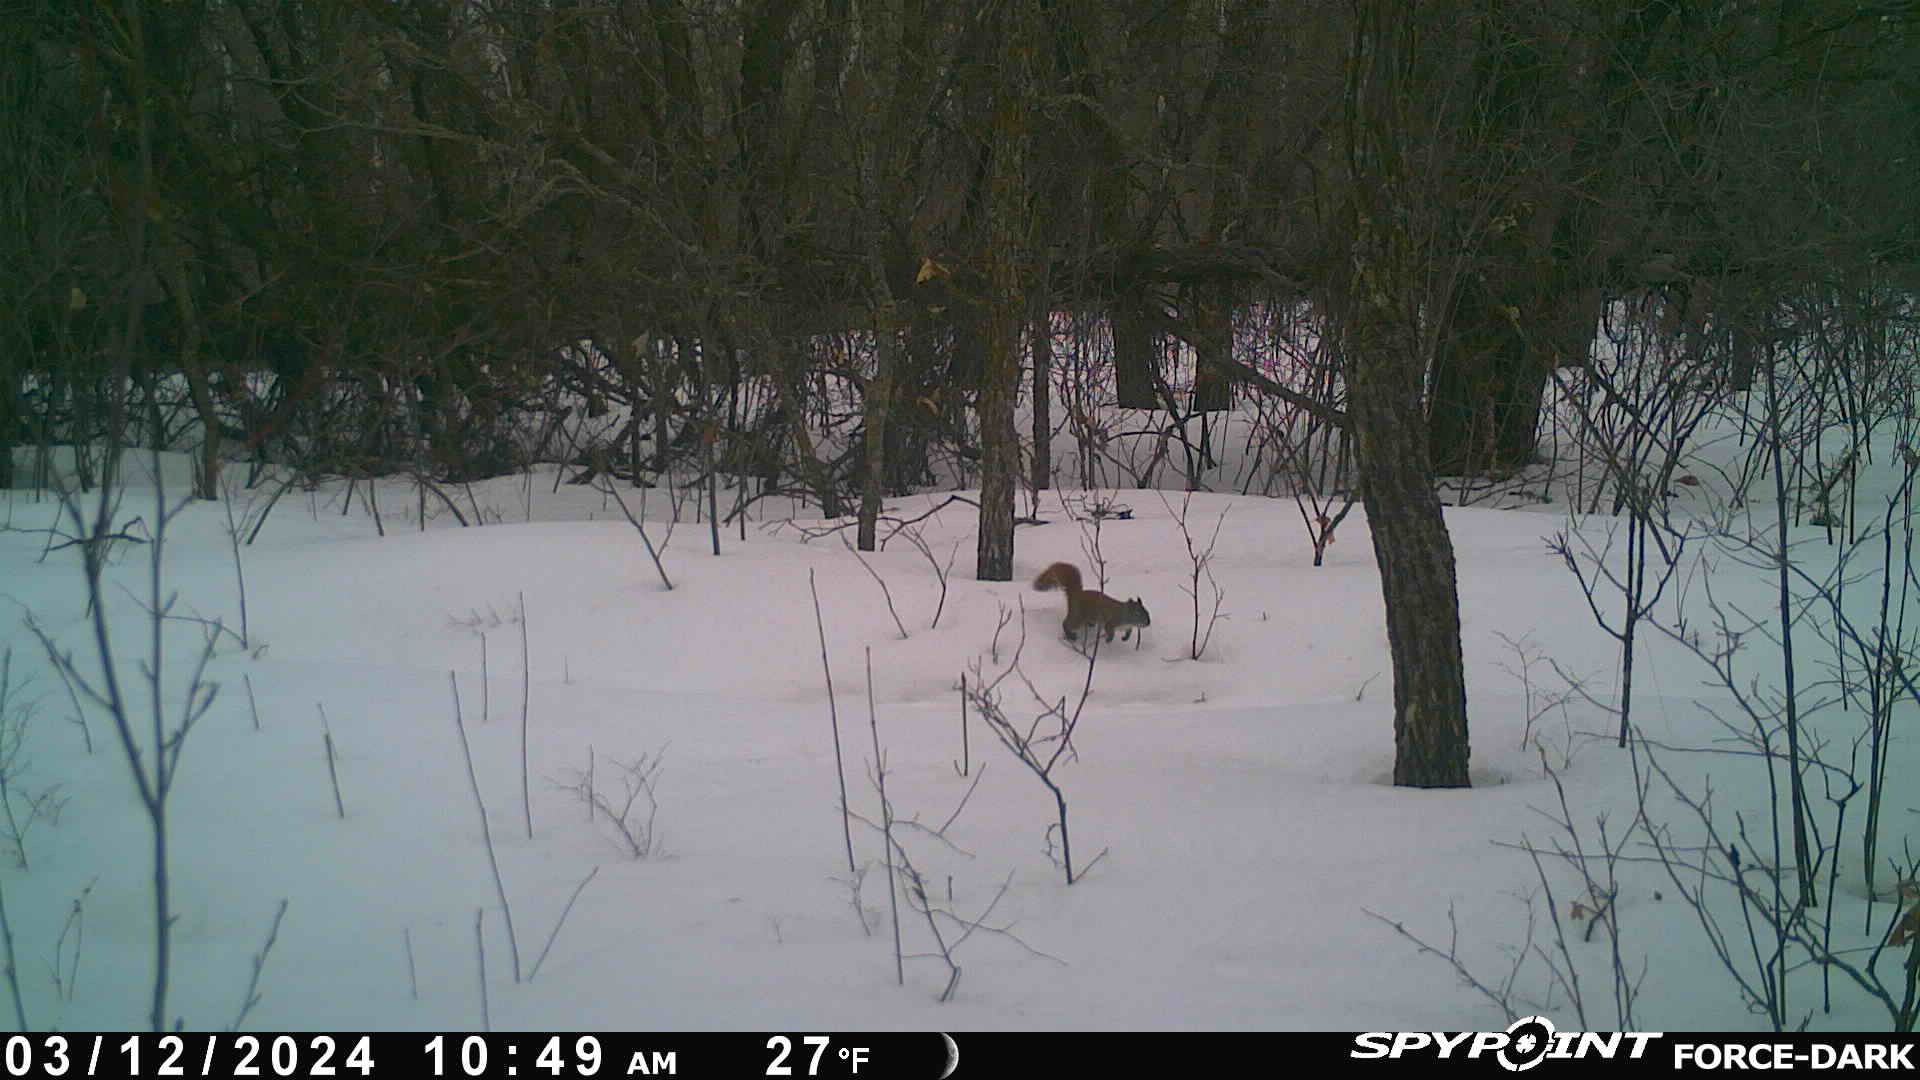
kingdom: Animalia
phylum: Chordata
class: Mammalia
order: Rodentia
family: Sciuridae
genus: Tamiasciurus
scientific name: Tamiasciurus hudsonicus
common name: Red squirrel
